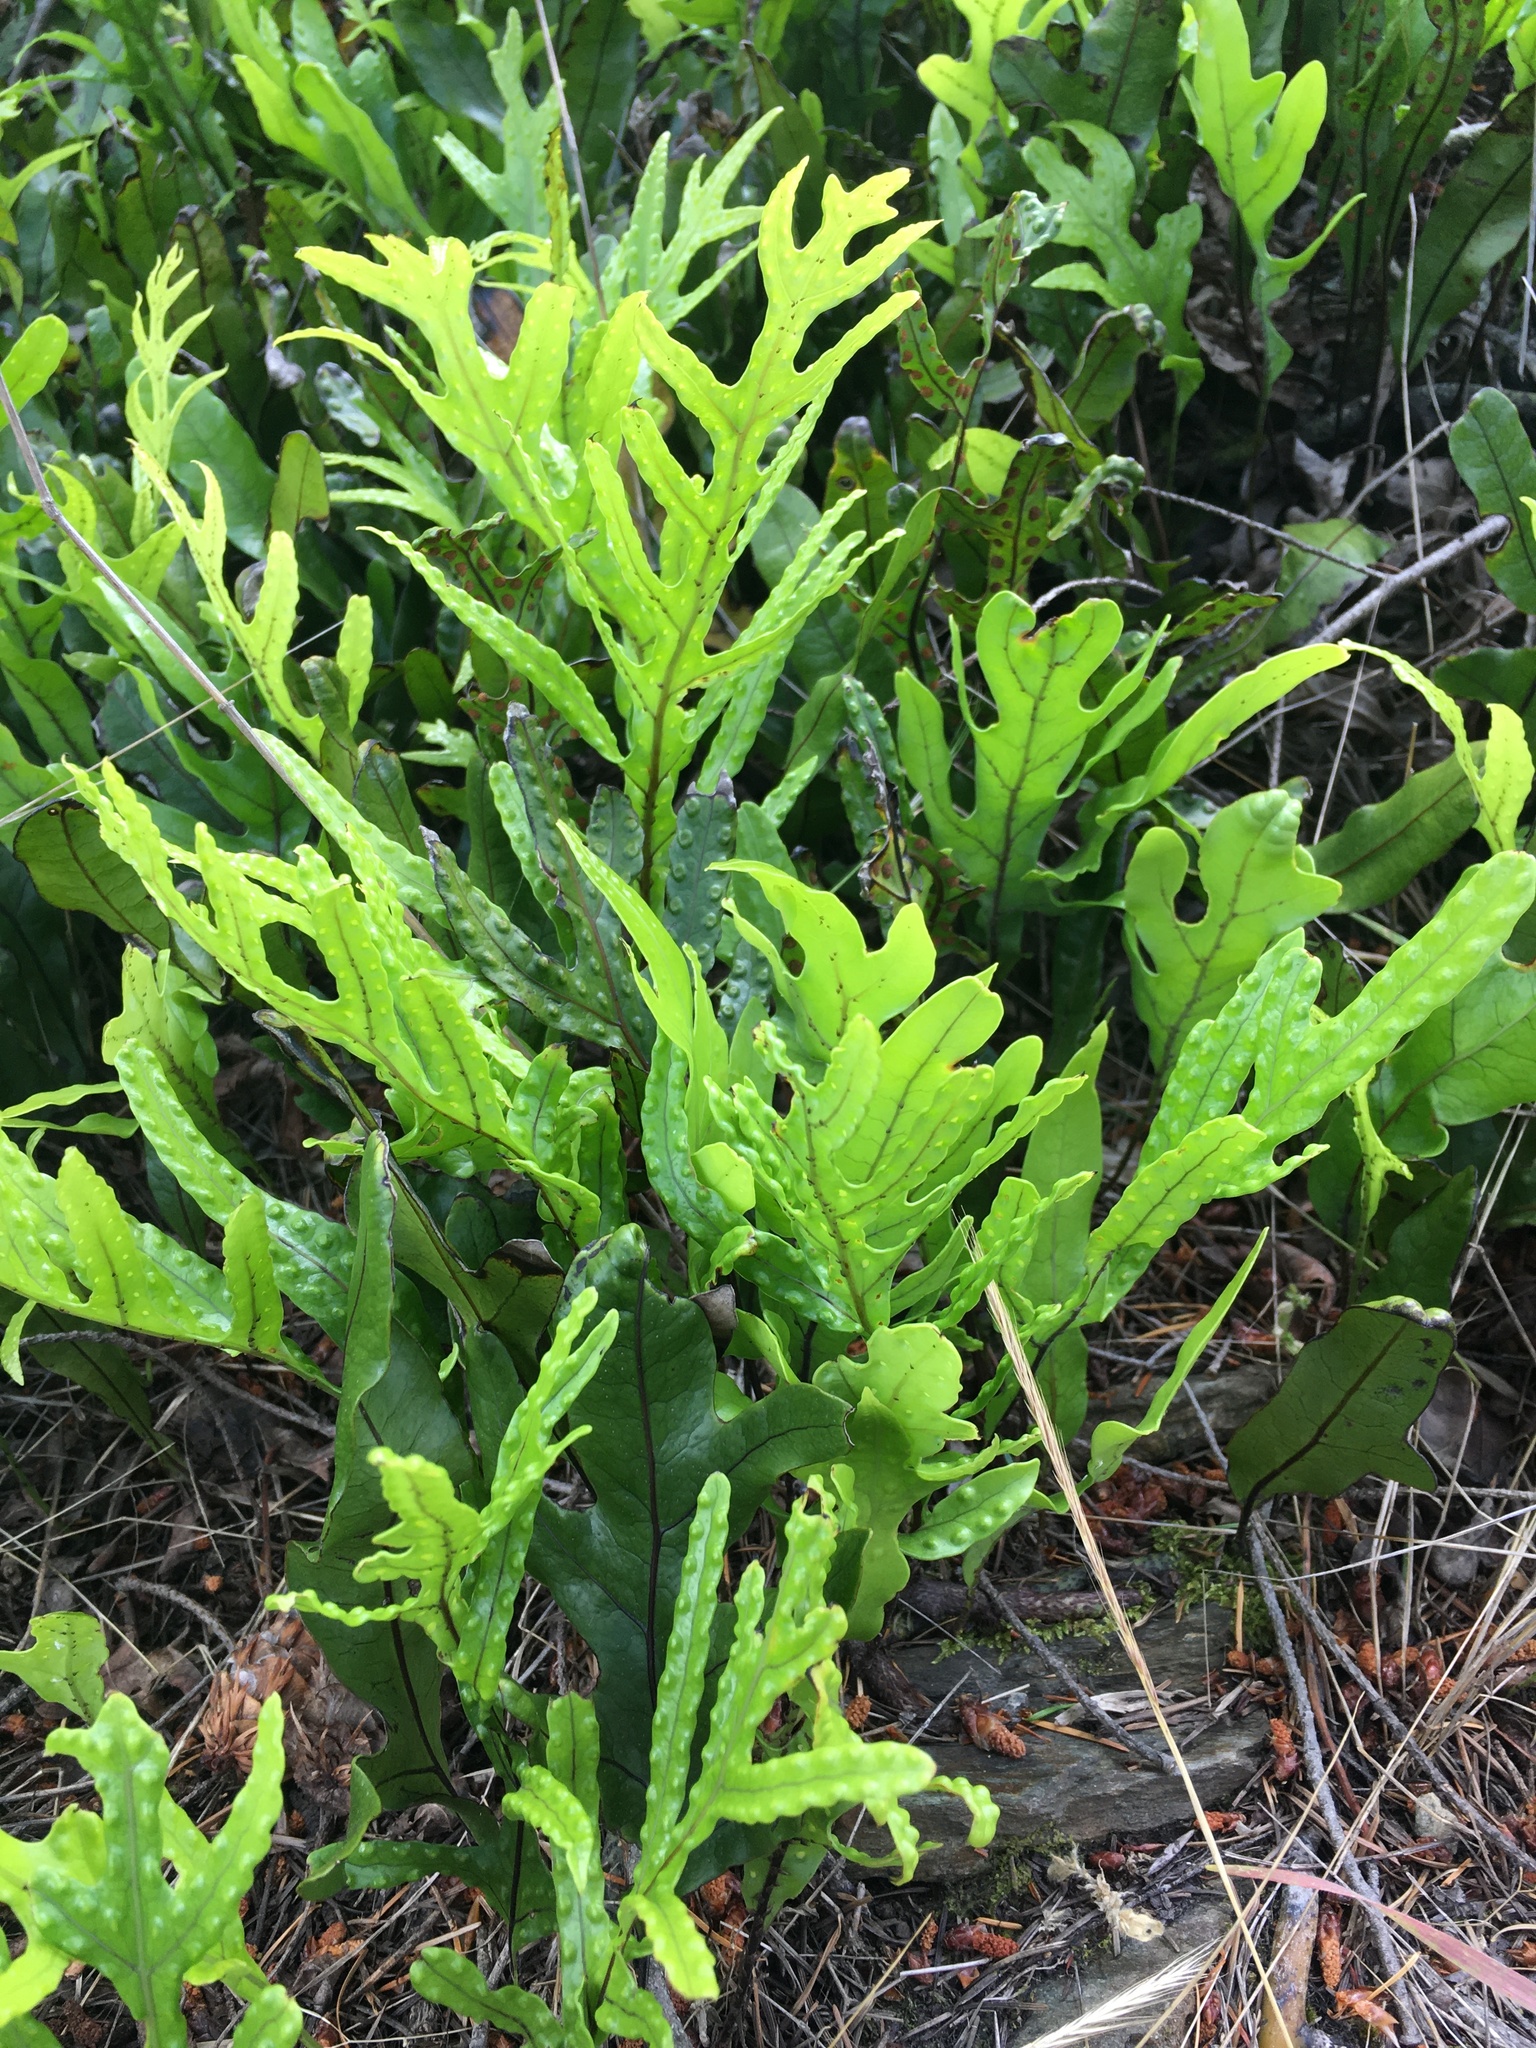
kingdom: Plantae
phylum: Tracheophyta
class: Polypodiopsida
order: Polypodiales
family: Polypodiaceae
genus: Lecanopteris
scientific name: Lecanopteris pustulata
